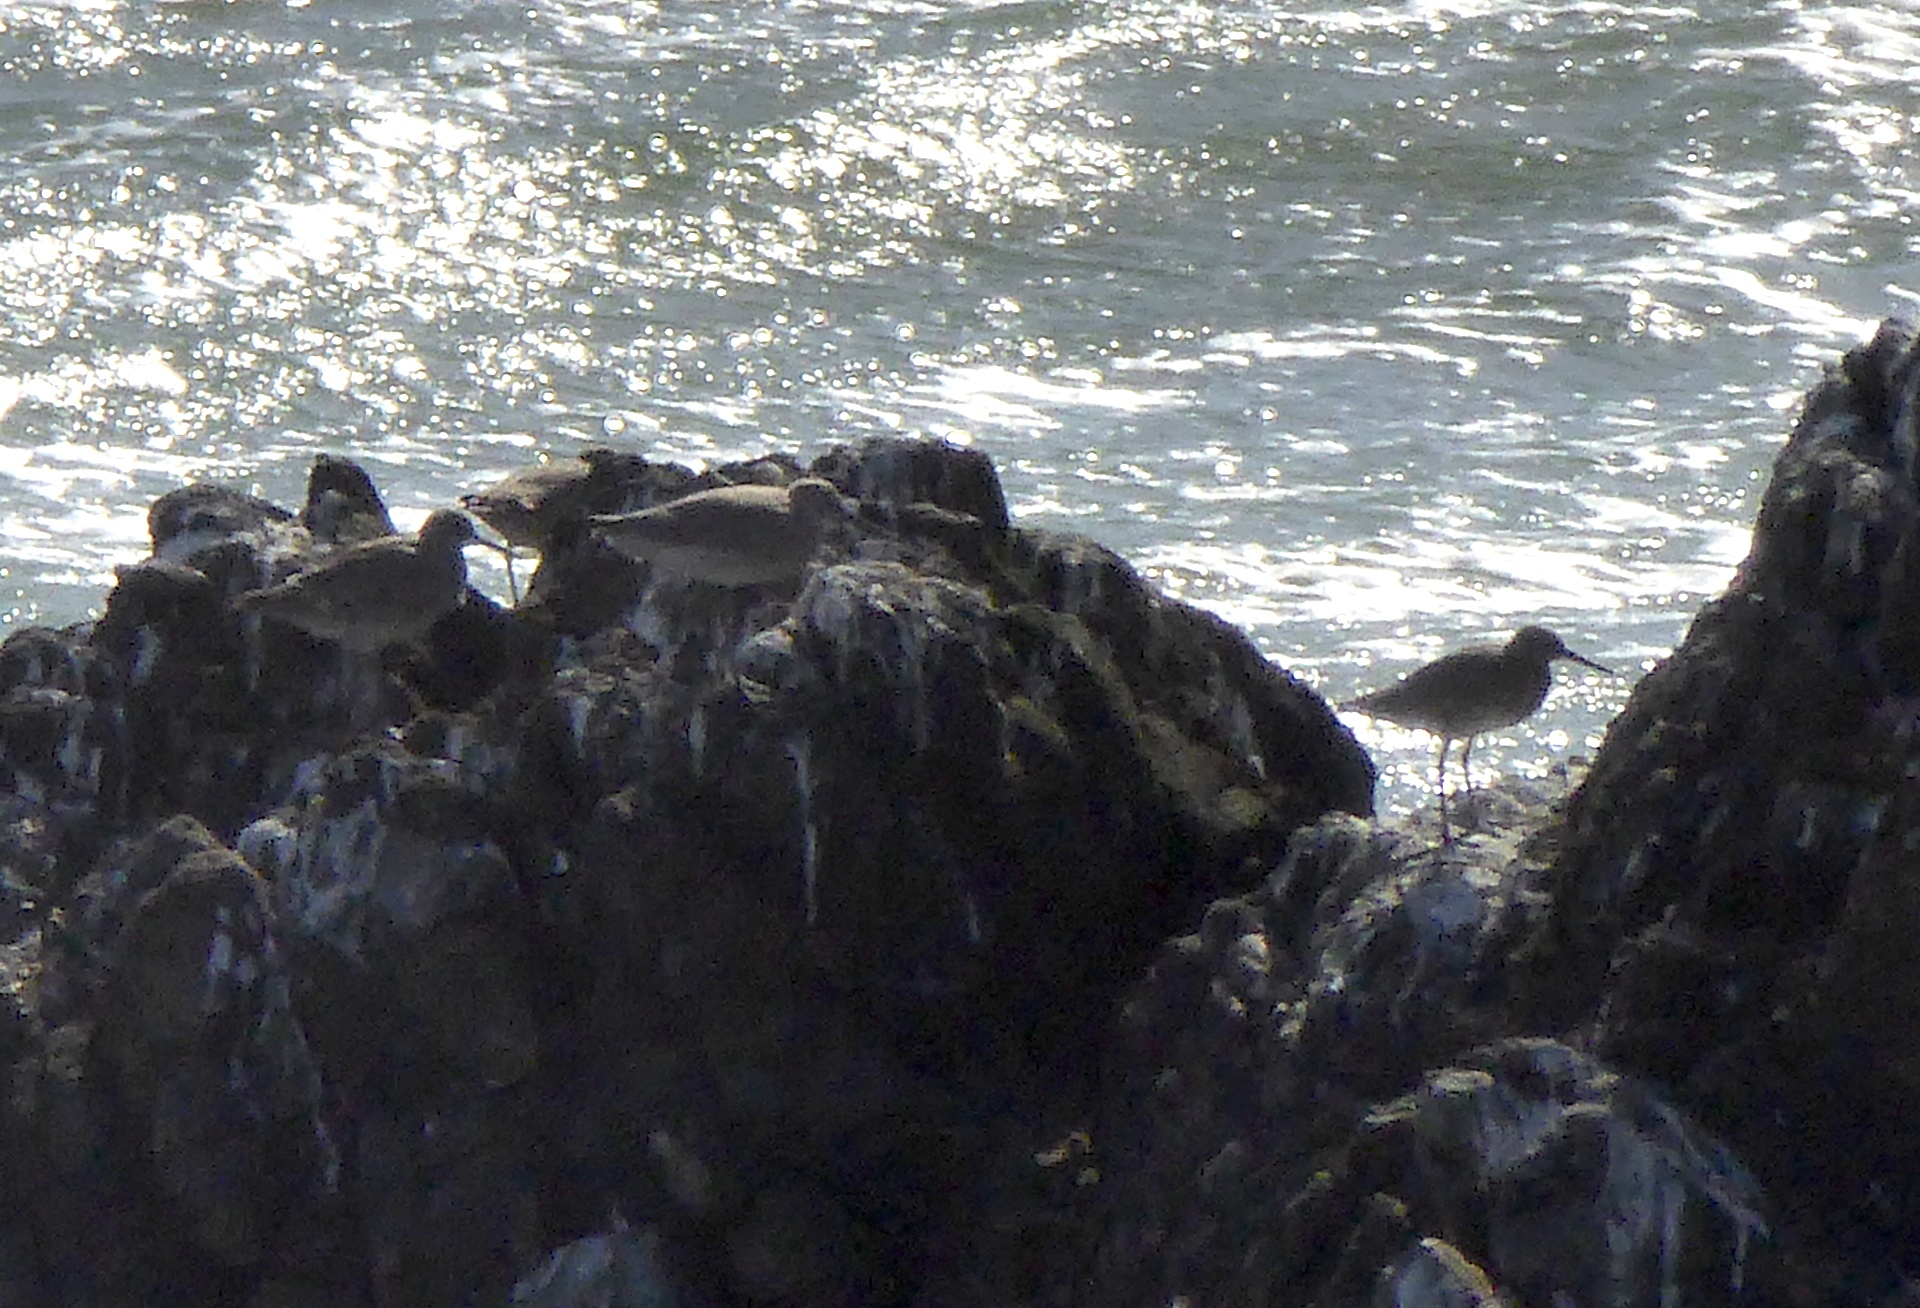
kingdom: Animalia
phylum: Chordata
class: Aves
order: Charadriiformes
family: Scolopacidae
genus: Tringa
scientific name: Tringa semipalmata
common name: Willet
